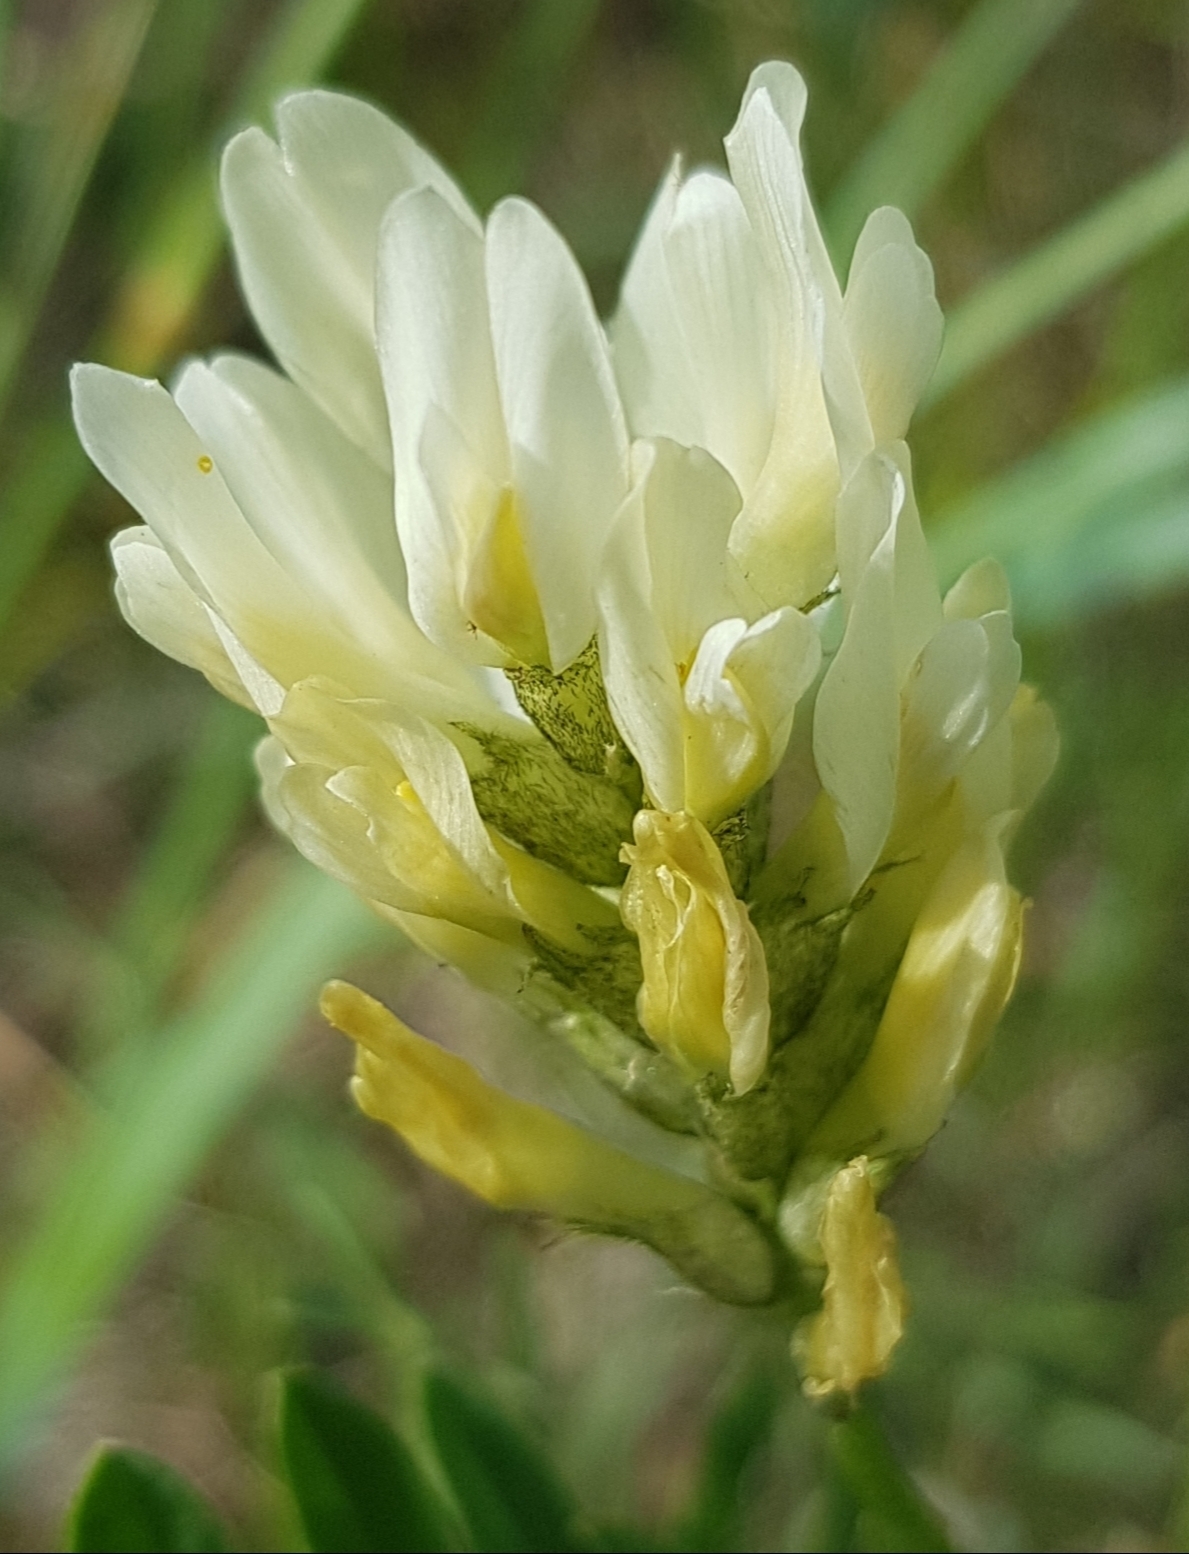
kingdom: Plantae
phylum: Tracheophyta
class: Magnoliopsida
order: Fabales
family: Fabaceae
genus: Astragalus
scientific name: Astragalus laxmannii
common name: Laxmann's milk-vetch
